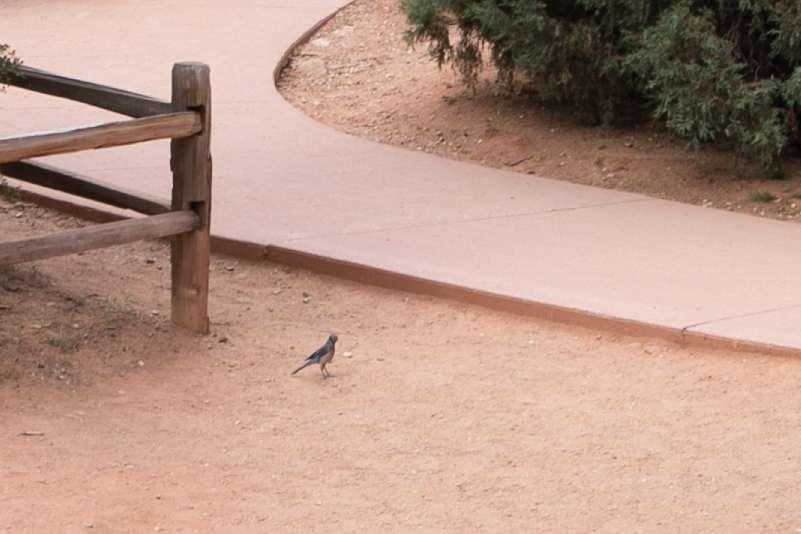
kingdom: Animalia
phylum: Chordata
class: Aves
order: Passeriformes
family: Corvidae
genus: Aphelocoma
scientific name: Aphelocoma woodhouseii
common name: Woodhouse's scrub-jay
